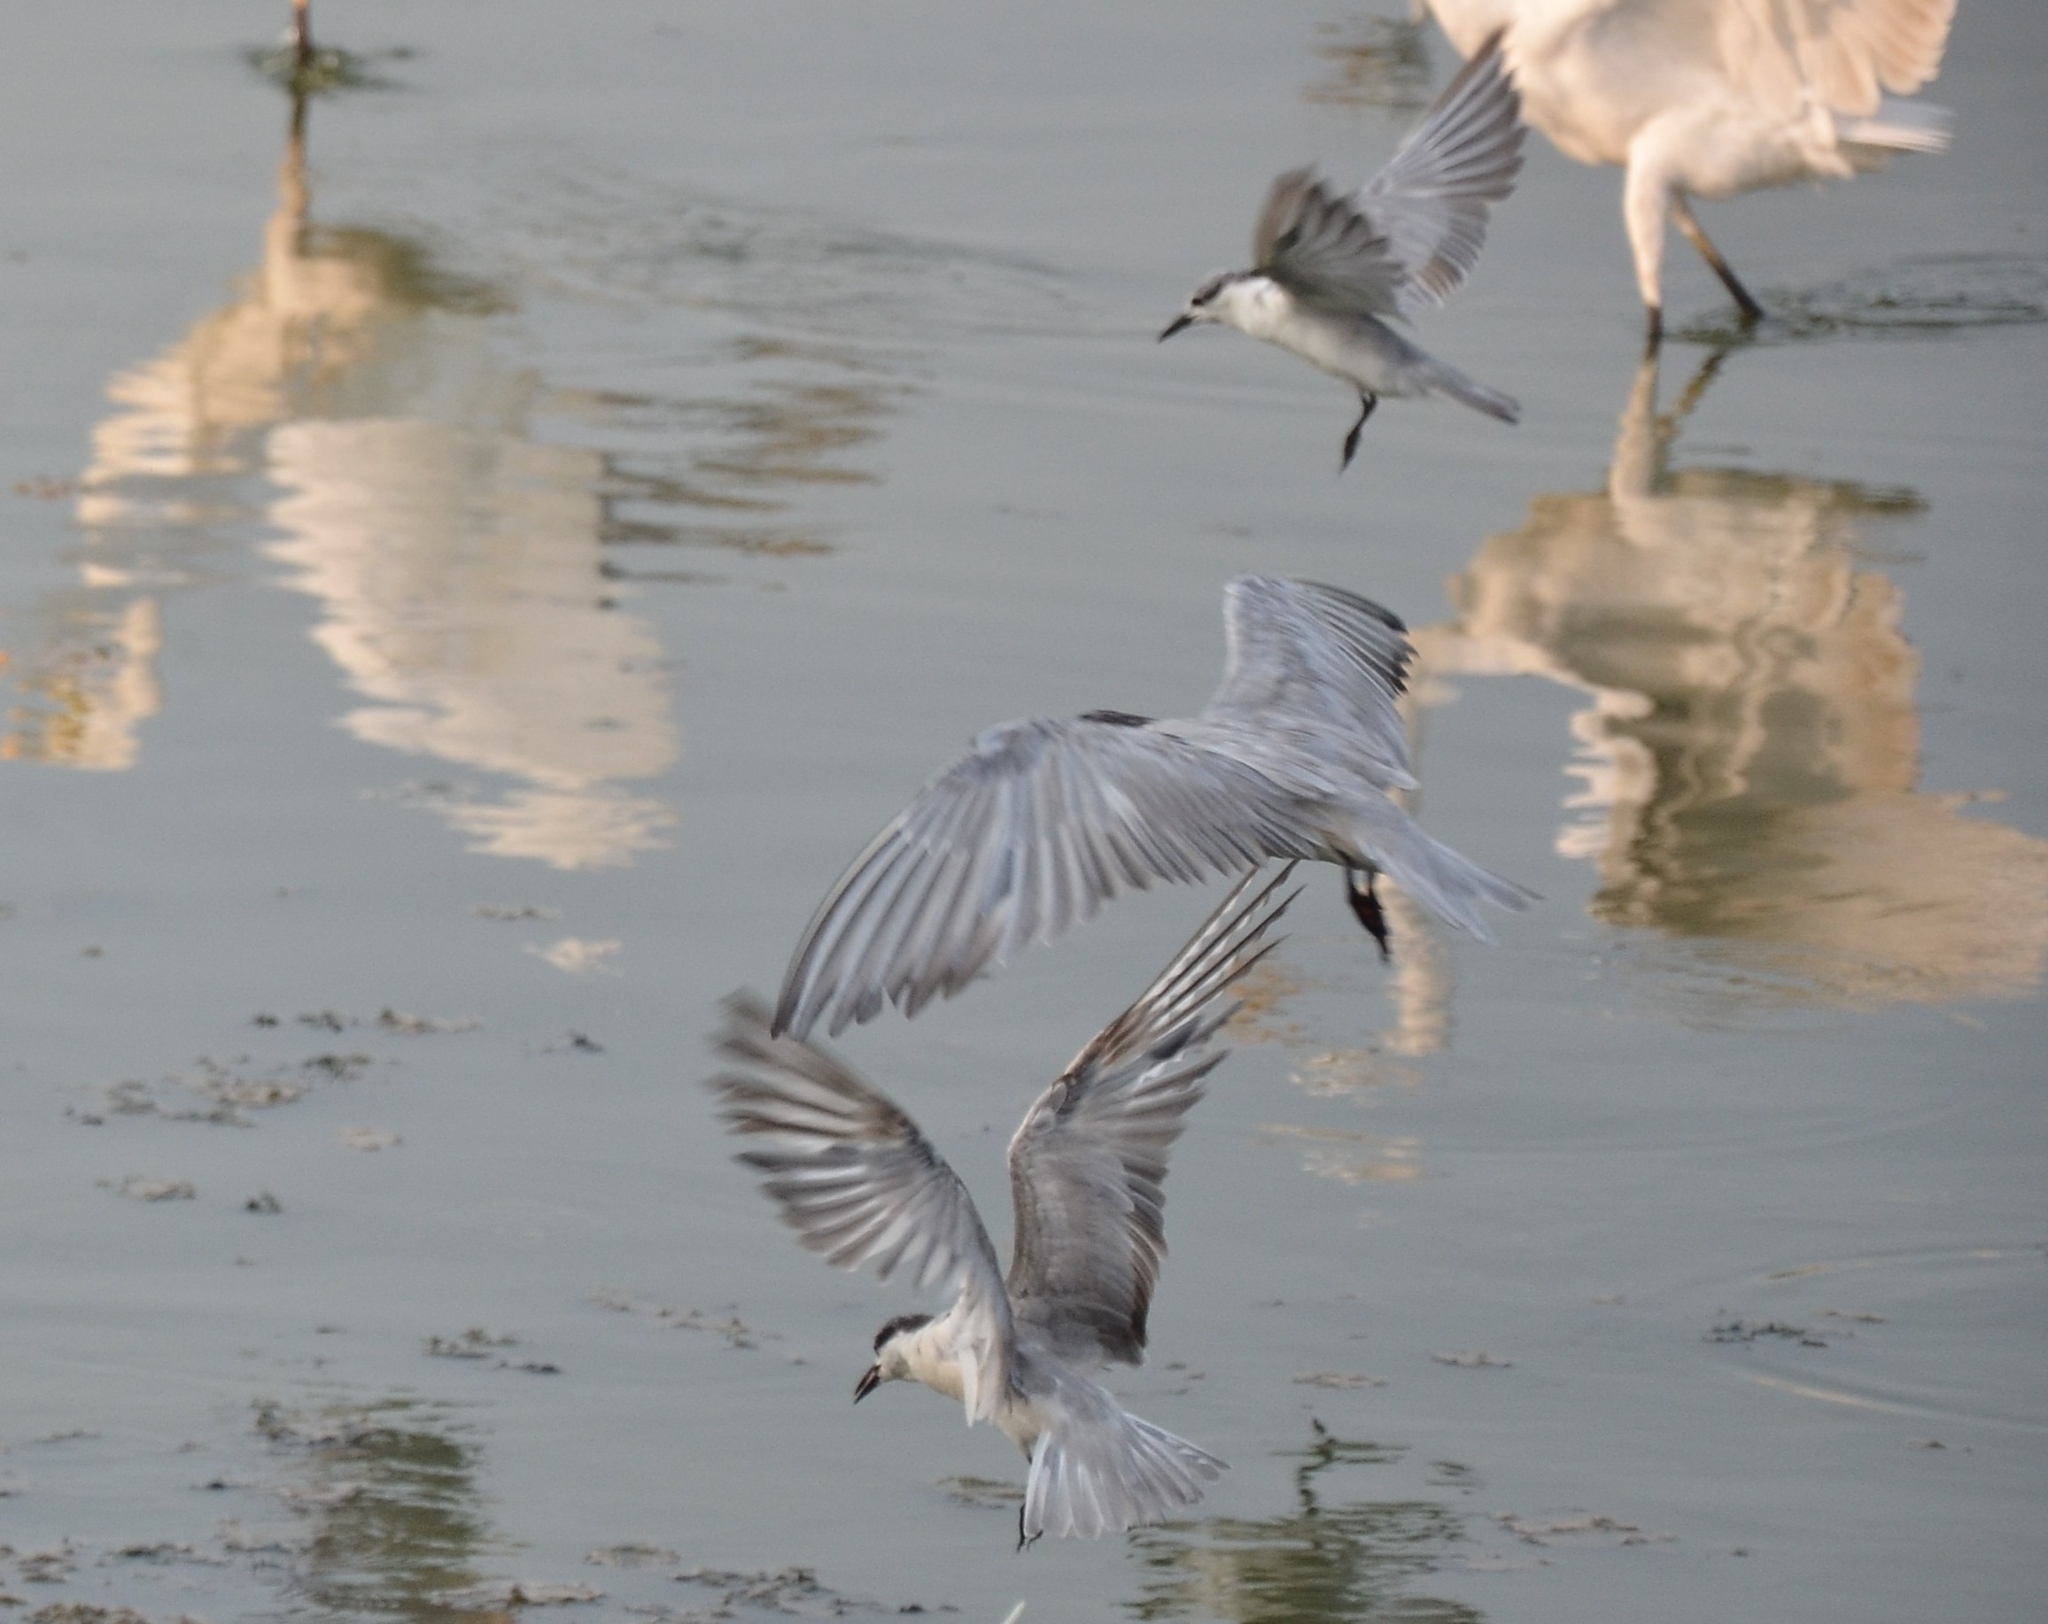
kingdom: Animalia
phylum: Chordata
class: Aves
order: Charadriiformes
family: Laridae
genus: Chlidonias
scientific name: Chlidonias hybrida
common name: Whiskered tern
